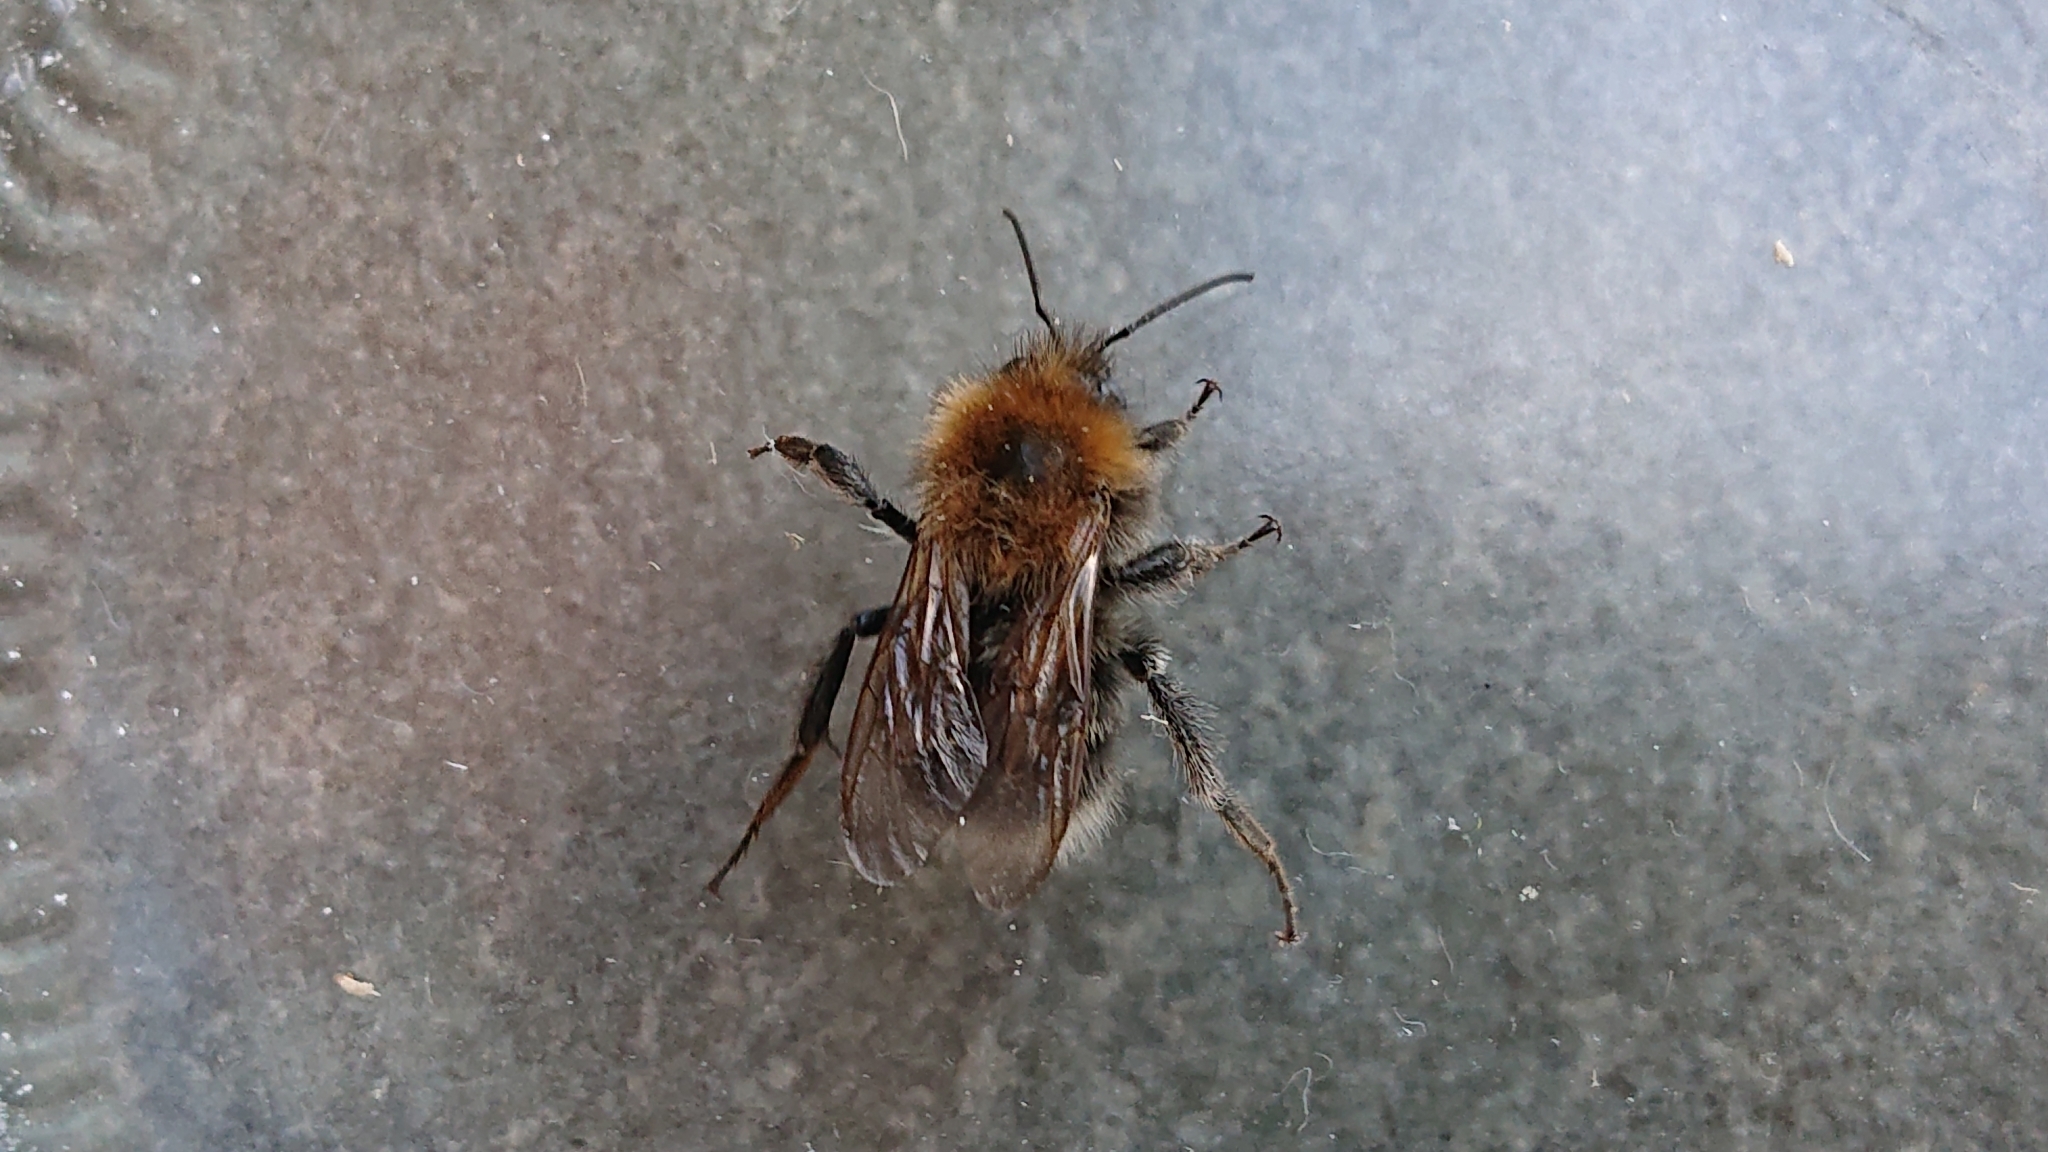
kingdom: Animalia
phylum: Arthropoda
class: Insecta
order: Hymenoptera
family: Apidae
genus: Bombus
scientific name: Bombus hypnorum
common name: New garden bumblebee
